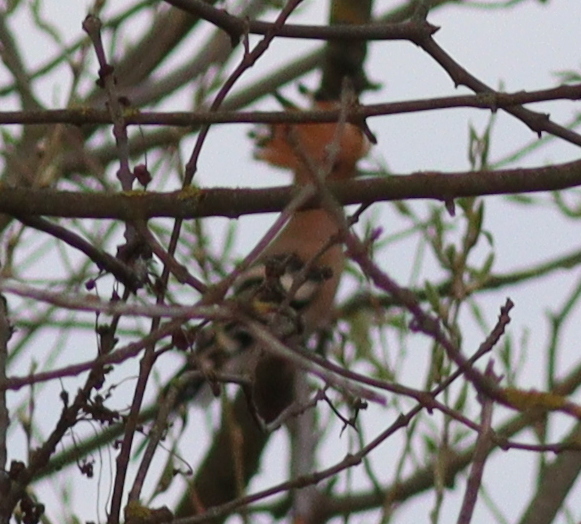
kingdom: Animalia
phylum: Chordata
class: Aves
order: Bucerotiformes
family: Upupidae
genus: Upupa
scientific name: Upupa epops
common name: Eurasian hoopoe
